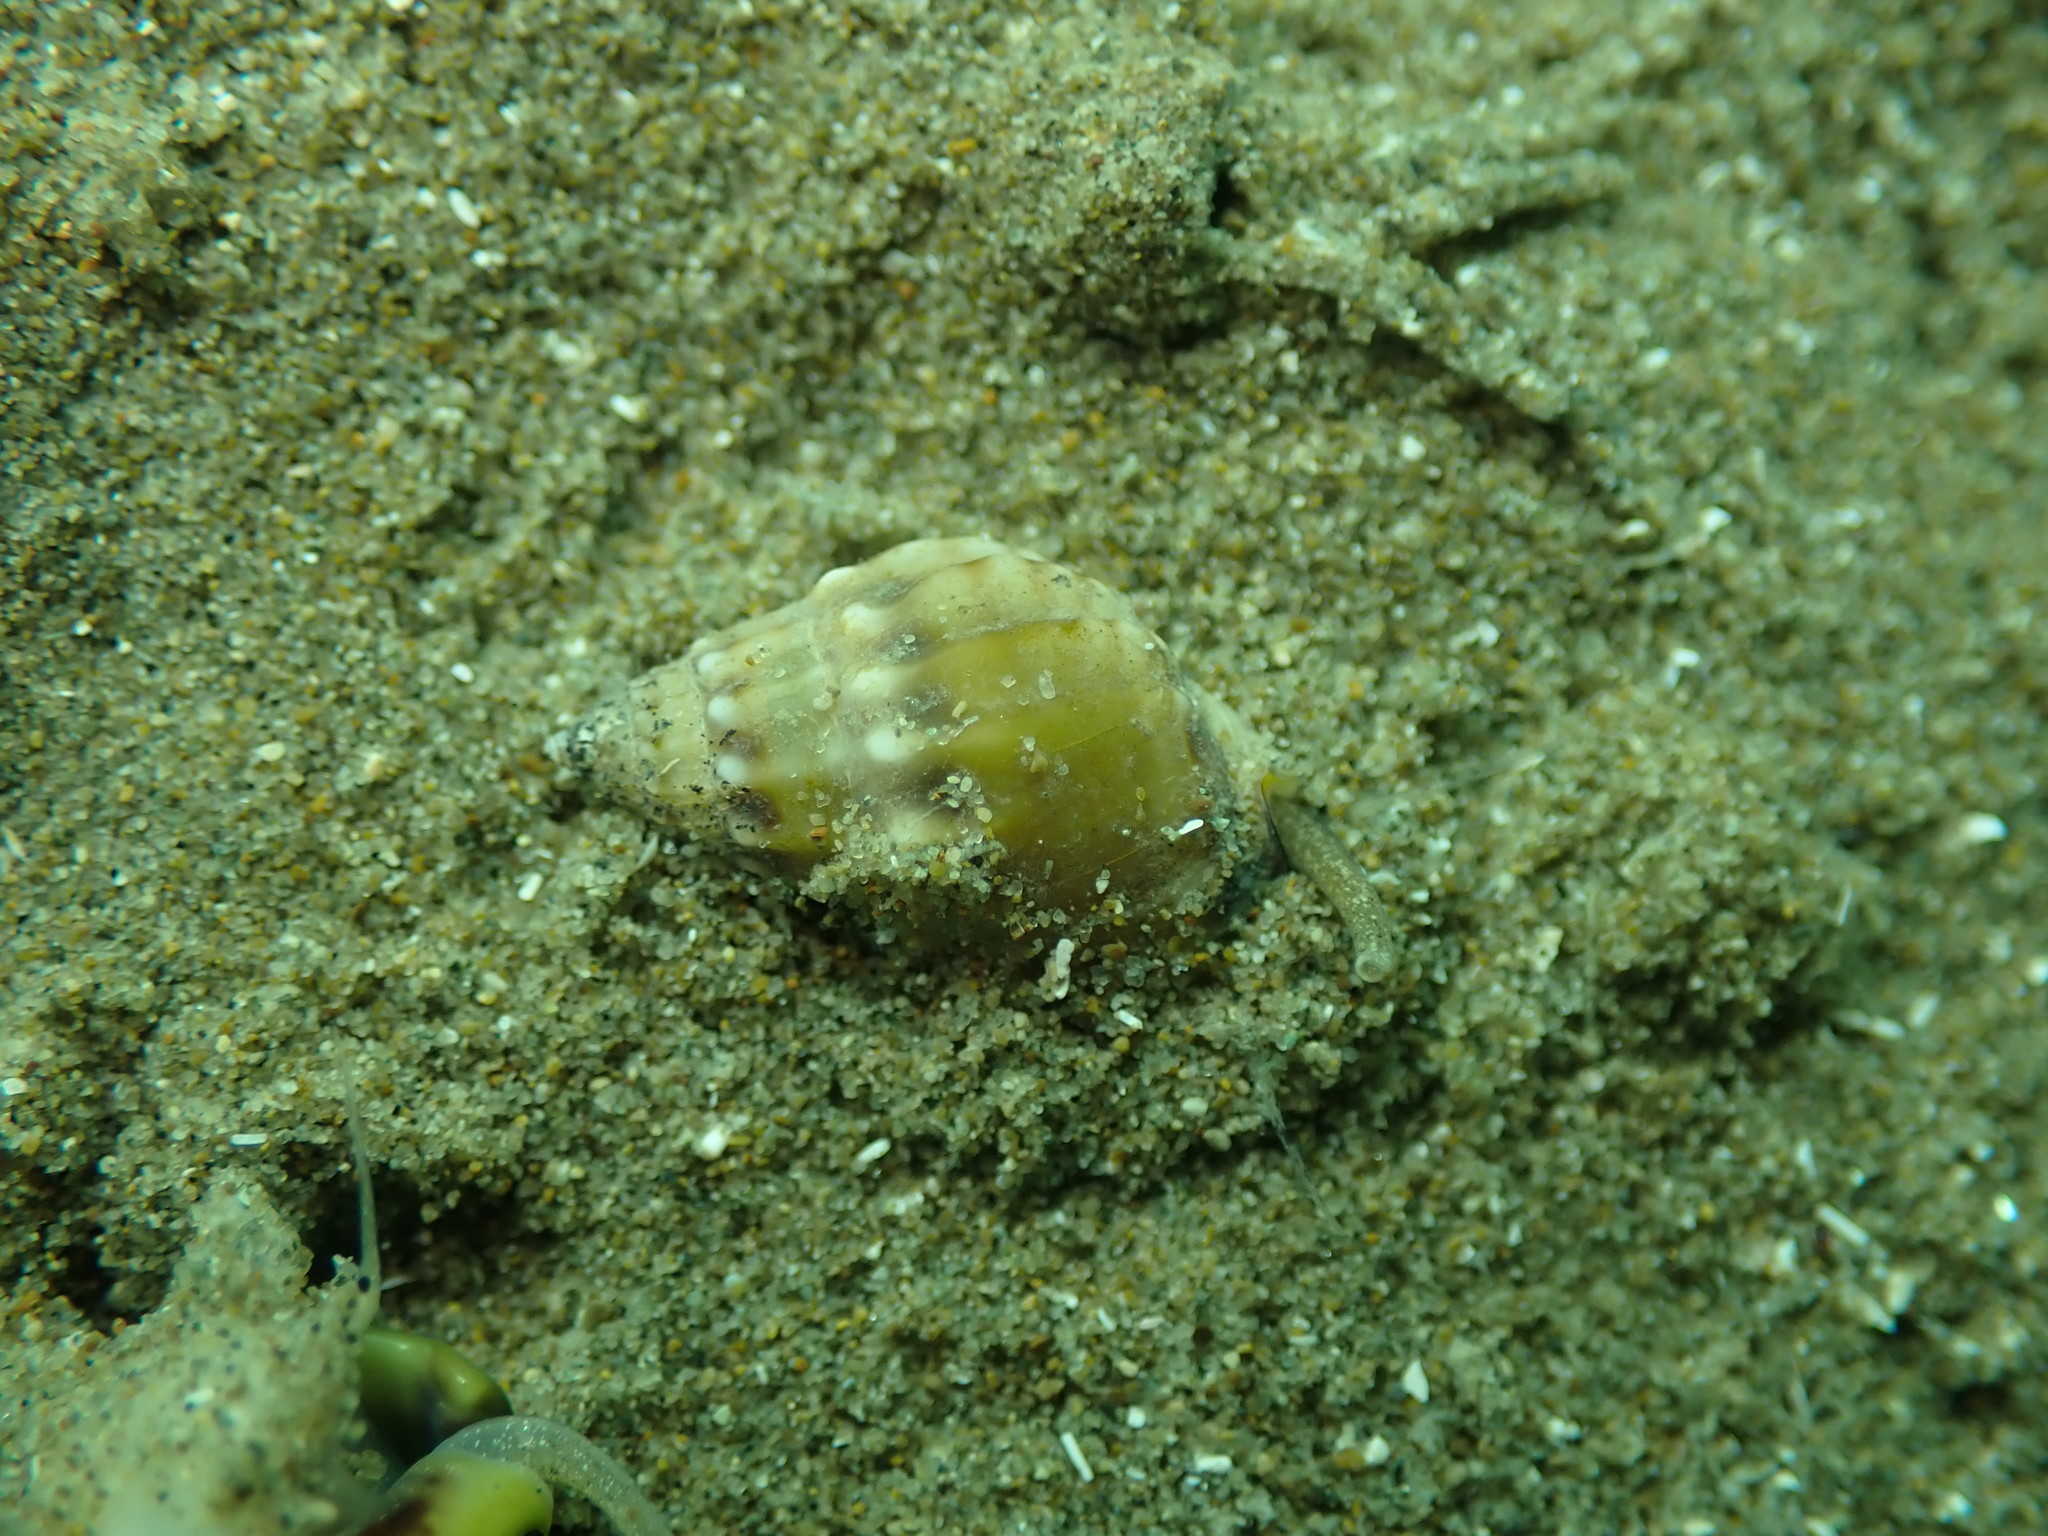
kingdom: Animalia
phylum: Mollusca
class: Gastropoda
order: Neogastropoda
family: Nassariidae
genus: Tritia
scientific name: Tritia burchardi
